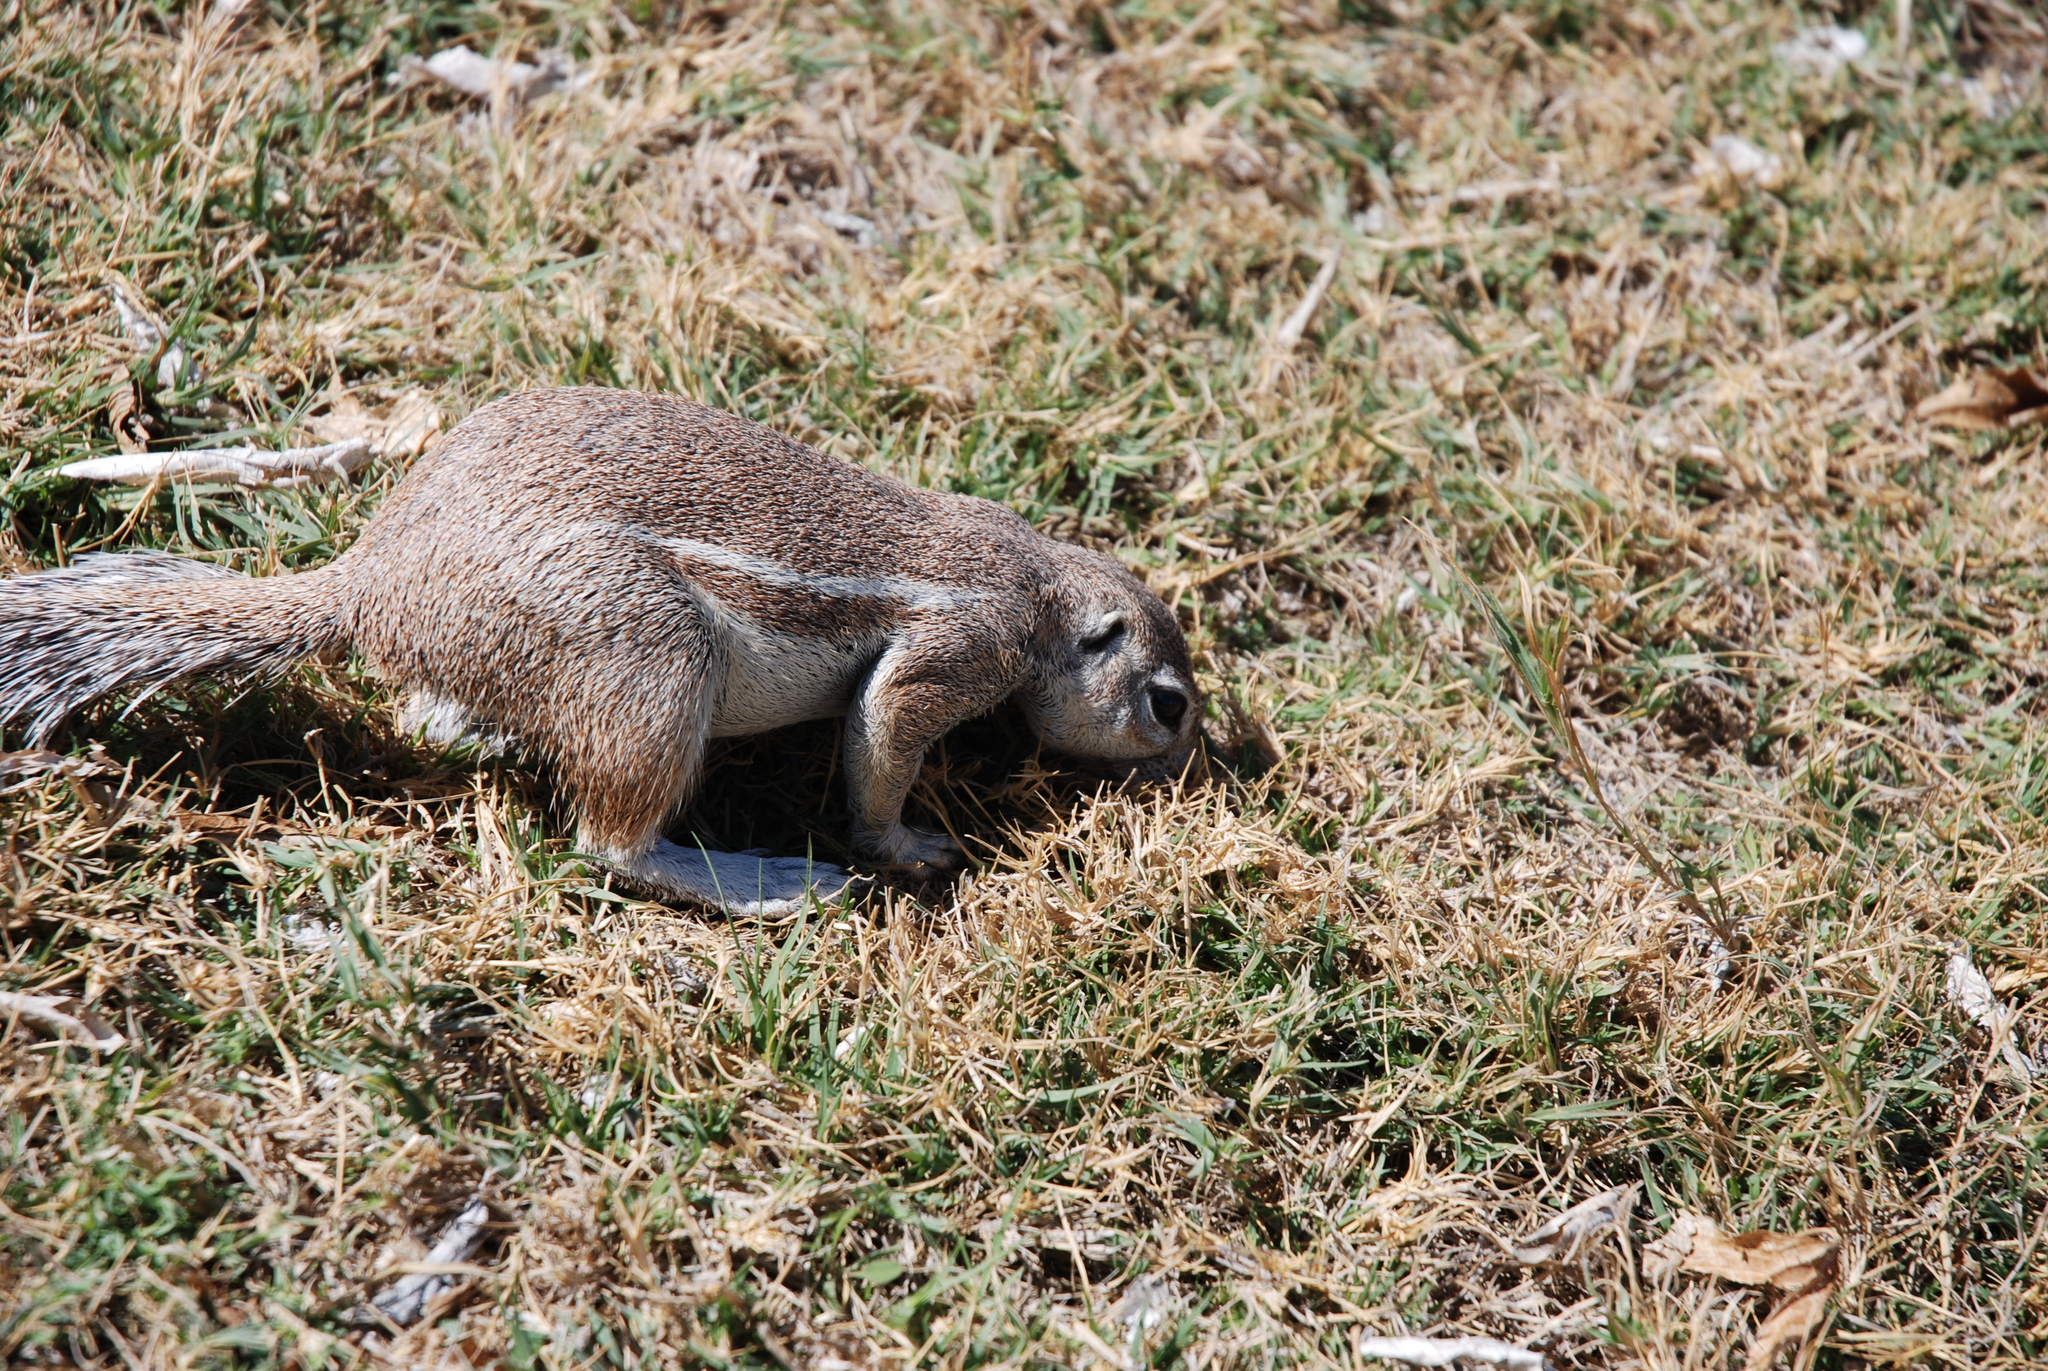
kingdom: Animalia
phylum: Chordata
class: Mammalia
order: Rodentia
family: Sciuridae
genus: Xerus
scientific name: Xerus inauris
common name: South african ground squirrel
